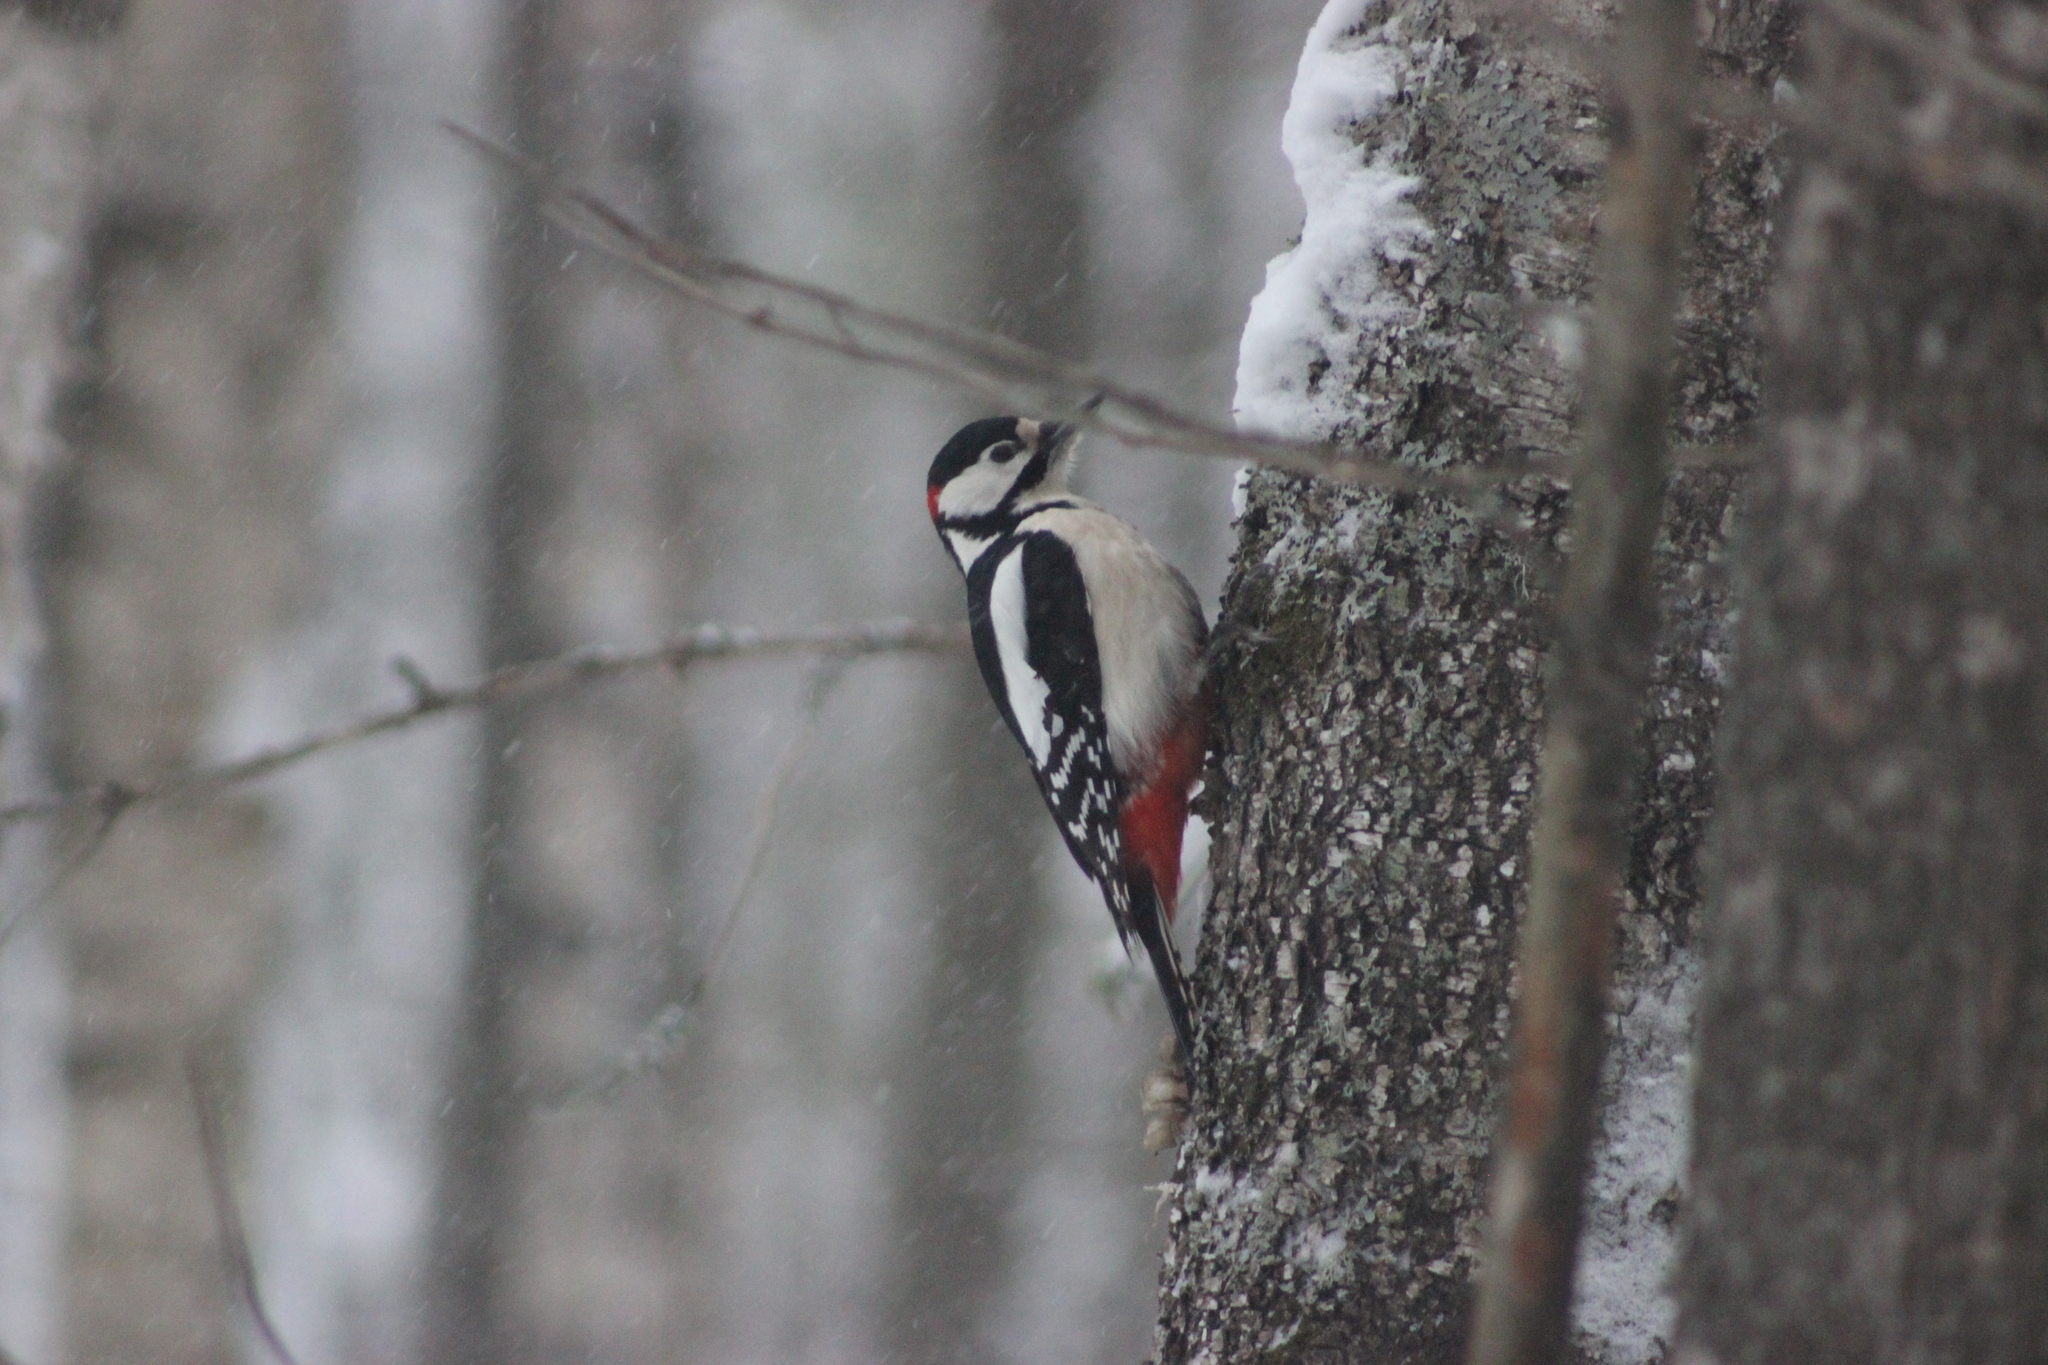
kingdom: Animalia
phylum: Chordata
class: Aves
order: Piciformes
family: Picidae
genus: Dendrocopos
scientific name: Dendrocopos major
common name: Great spotted woodpecker
